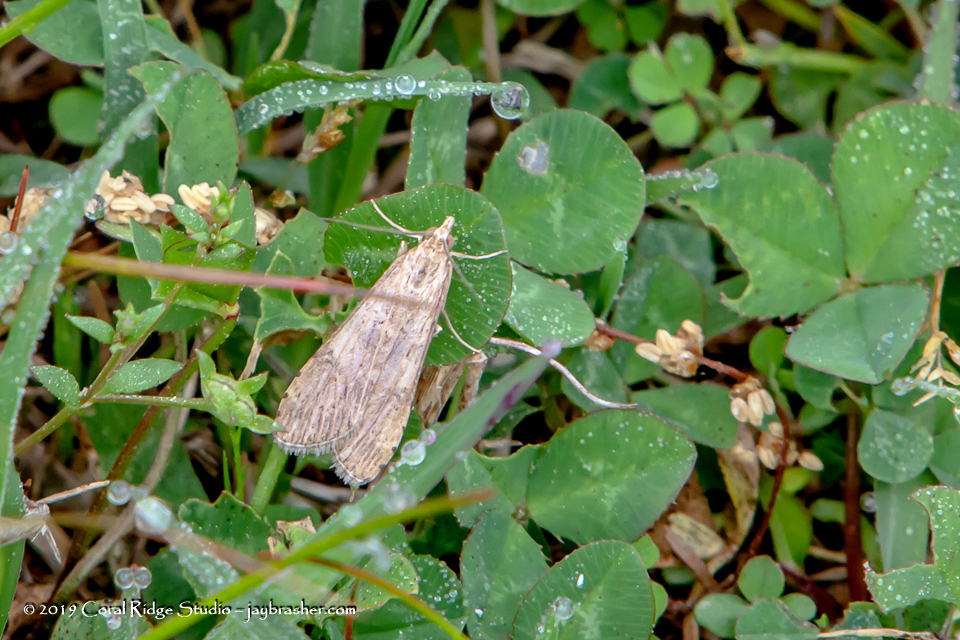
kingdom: Animalia
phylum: Arthropoda
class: Insecta
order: Lepidoptera
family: Crambidae
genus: Nomophila
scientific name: Nomophila nearctica
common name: American rush veneer
